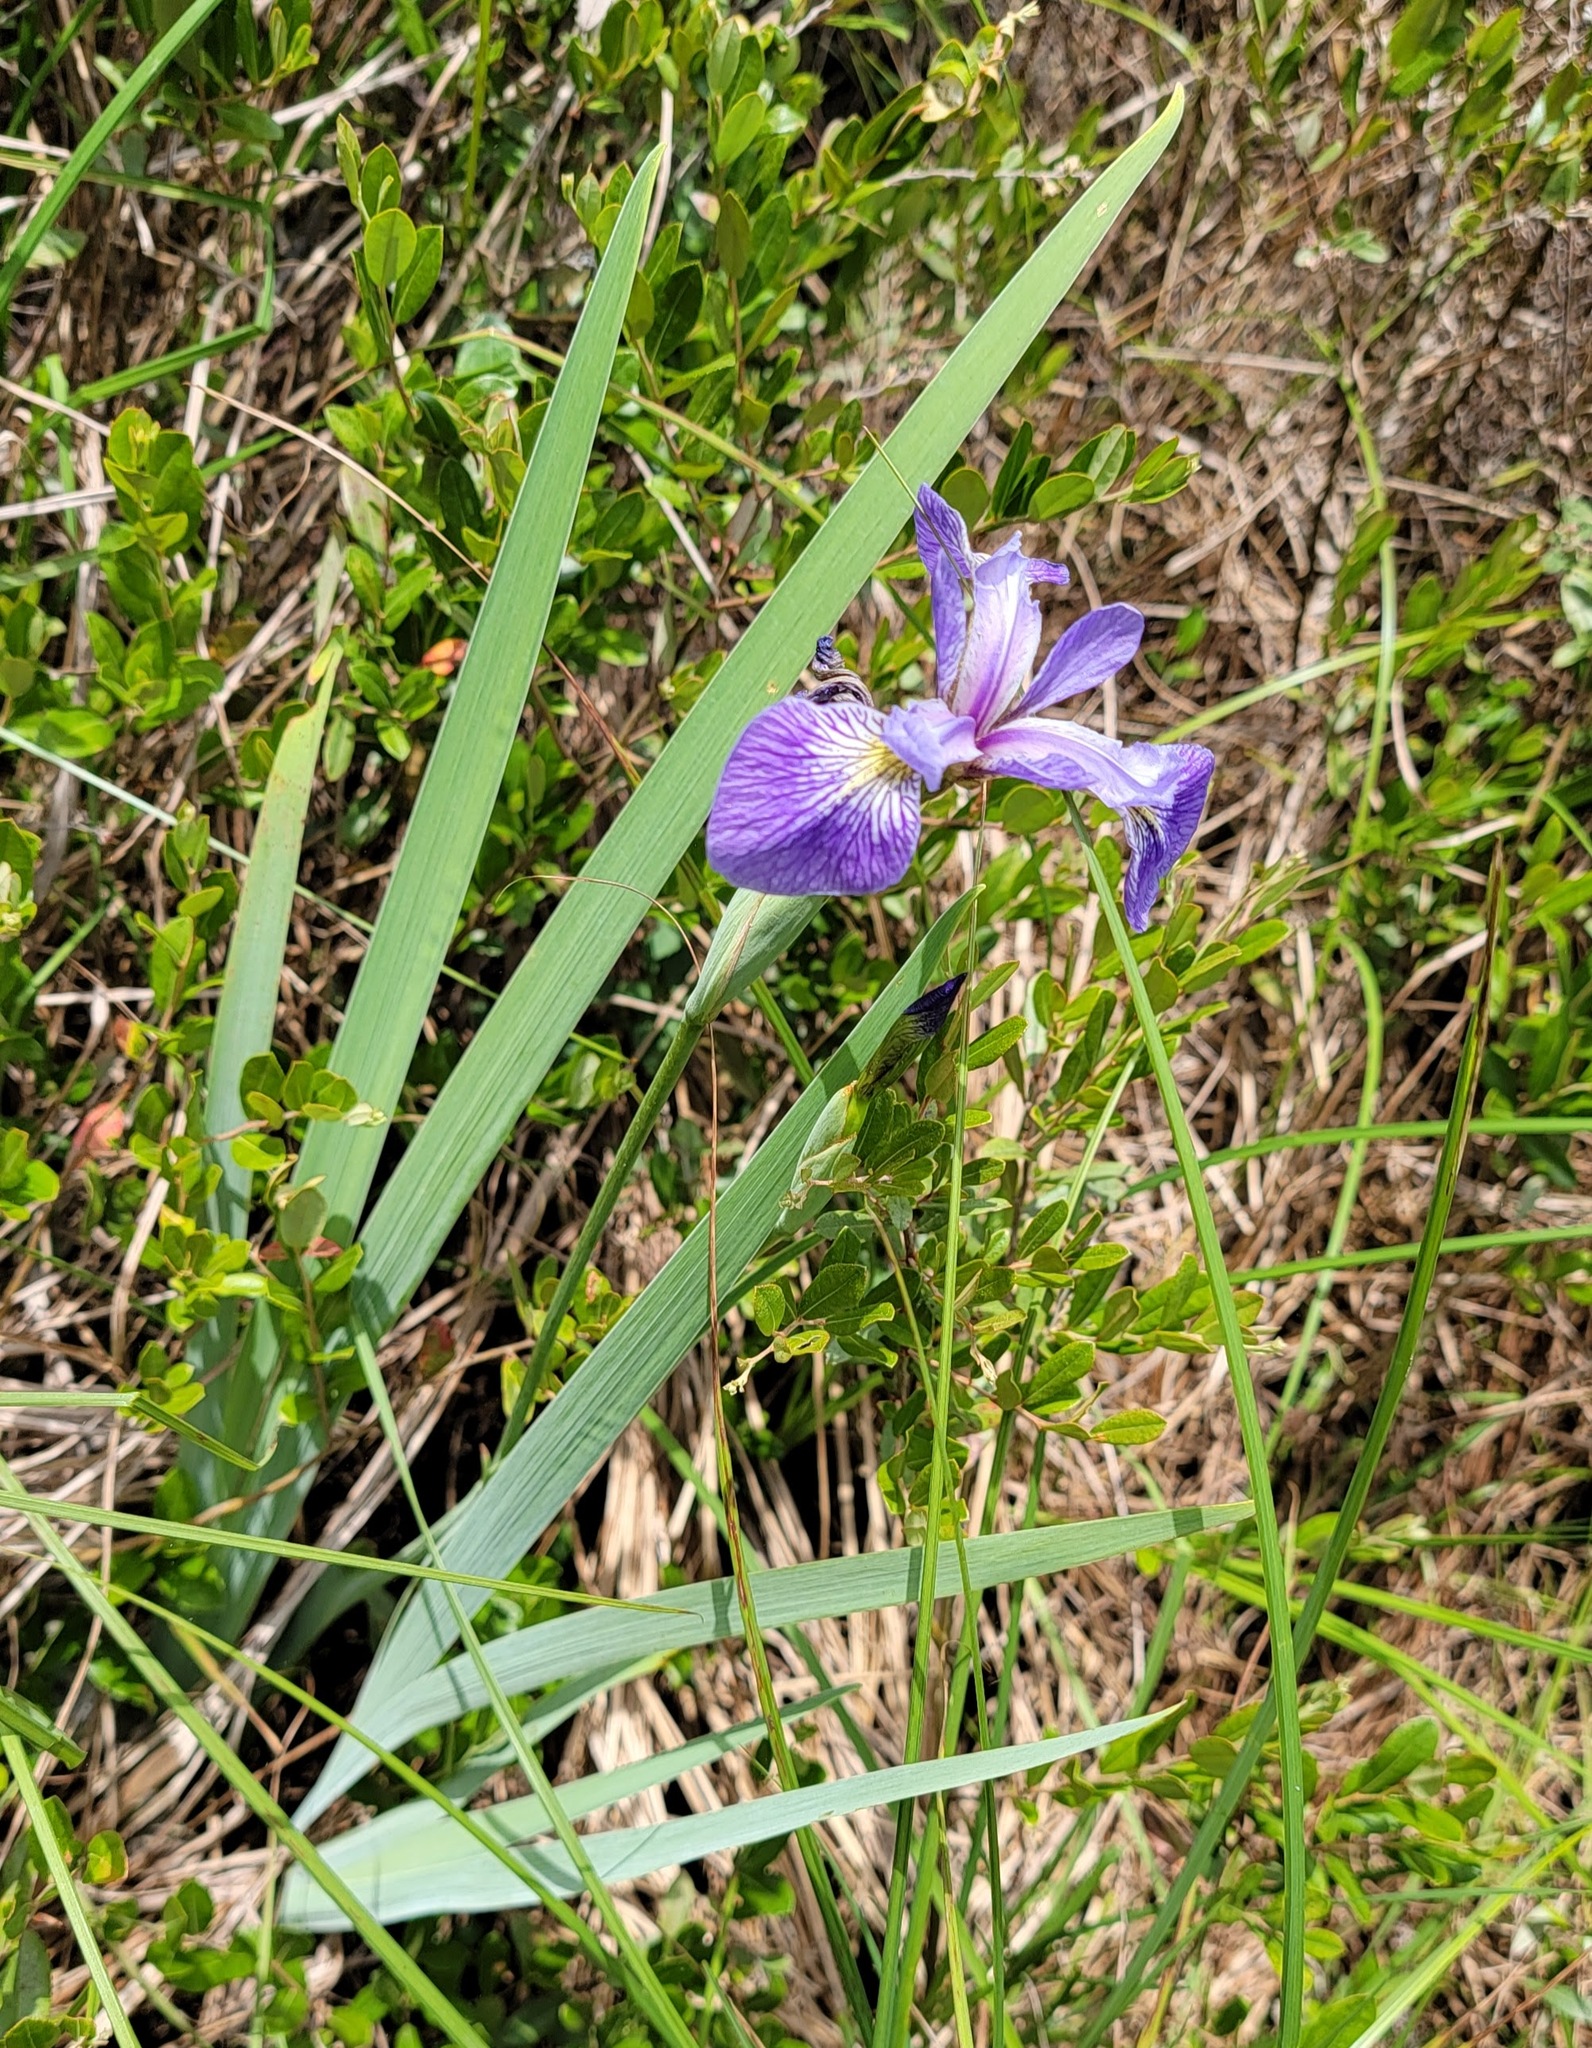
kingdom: Plantae
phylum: Tracheophyta
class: Liliopsida
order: Asparagales
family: Iridaceae
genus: Iris
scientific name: Iris versicolor
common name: Purple iris
